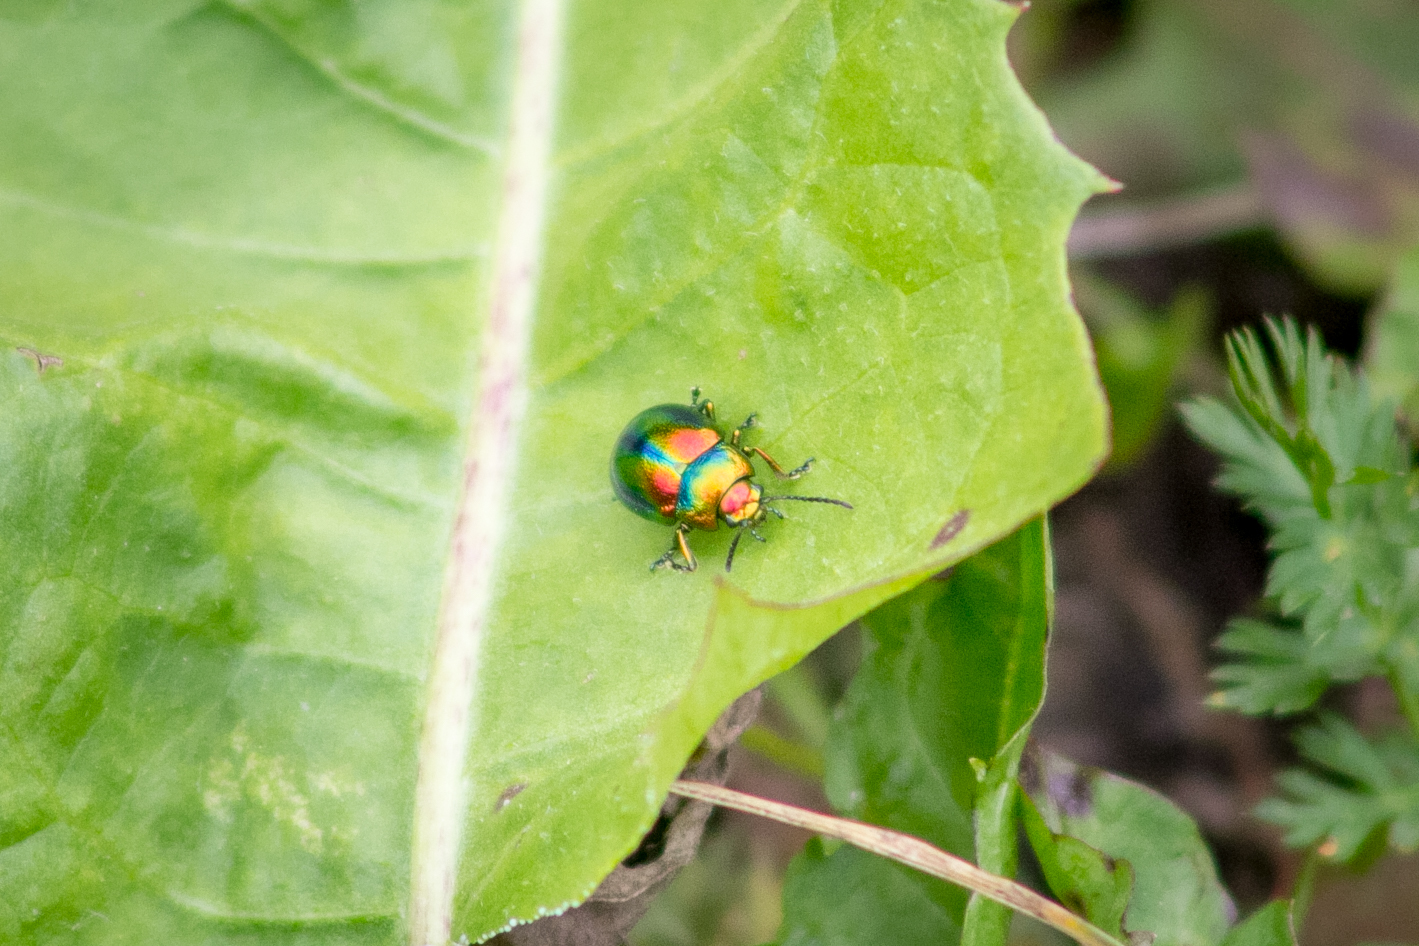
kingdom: Animalia
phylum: Arthropoda
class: Insecta
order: Coleoptera
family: Chrysomelidae
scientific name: Chrysomelidae
